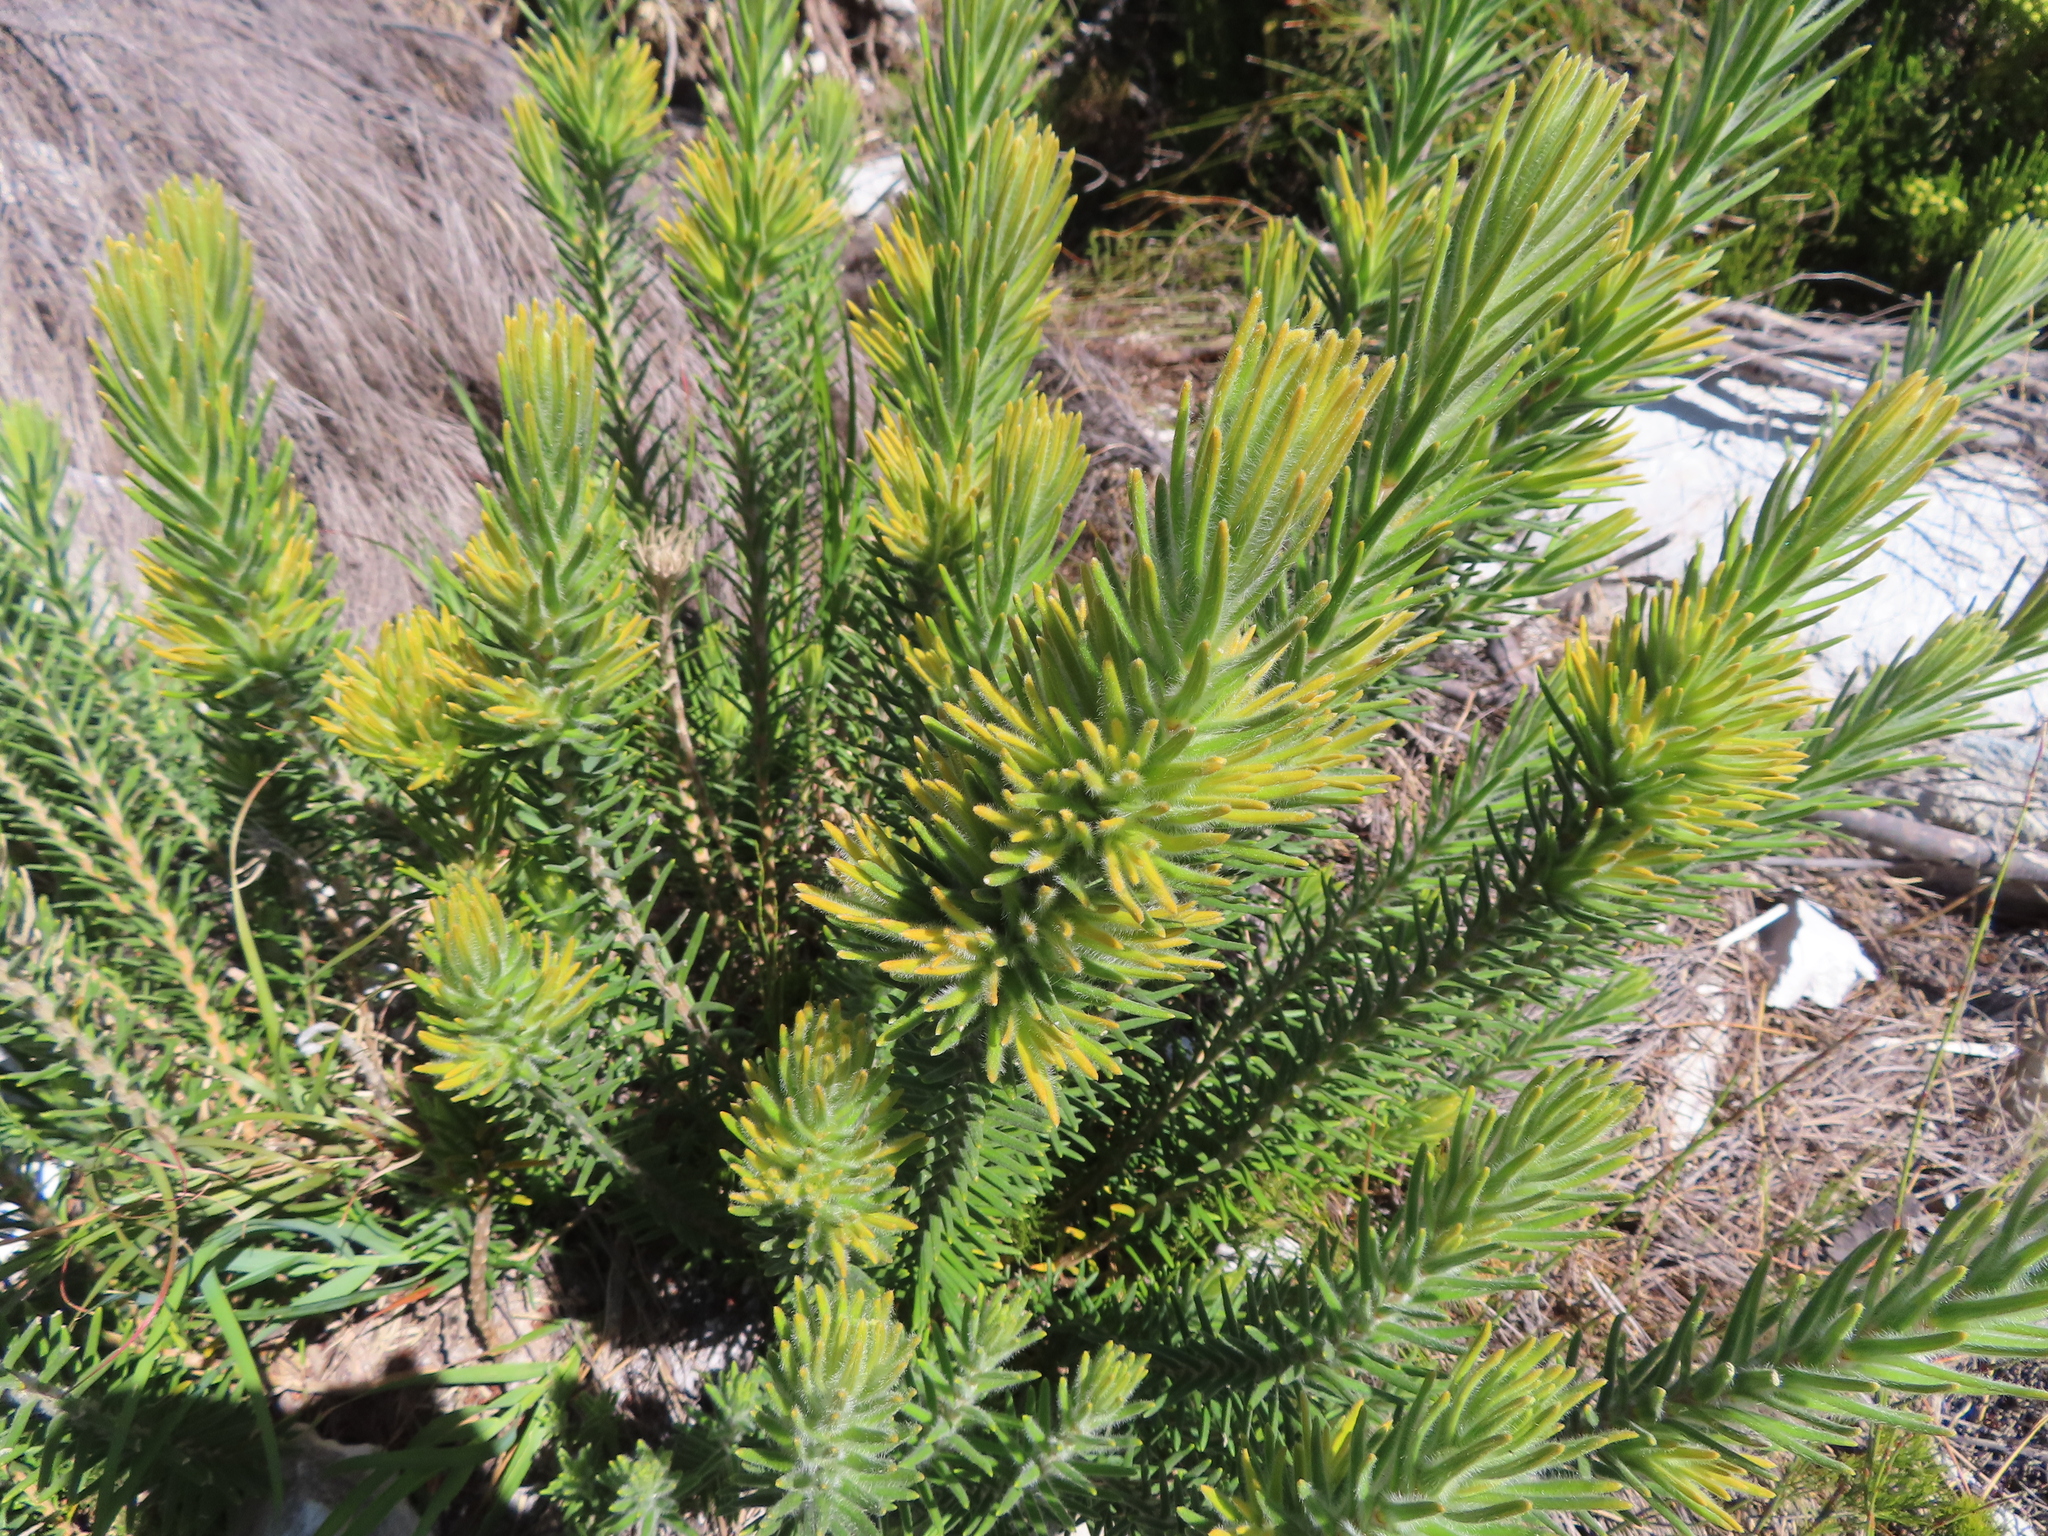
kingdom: Plantae
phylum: Tracheophyta
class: Magnoliopsida
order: Lamiales
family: Stilbaceae
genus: Retzia
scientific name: Retzia capensis
